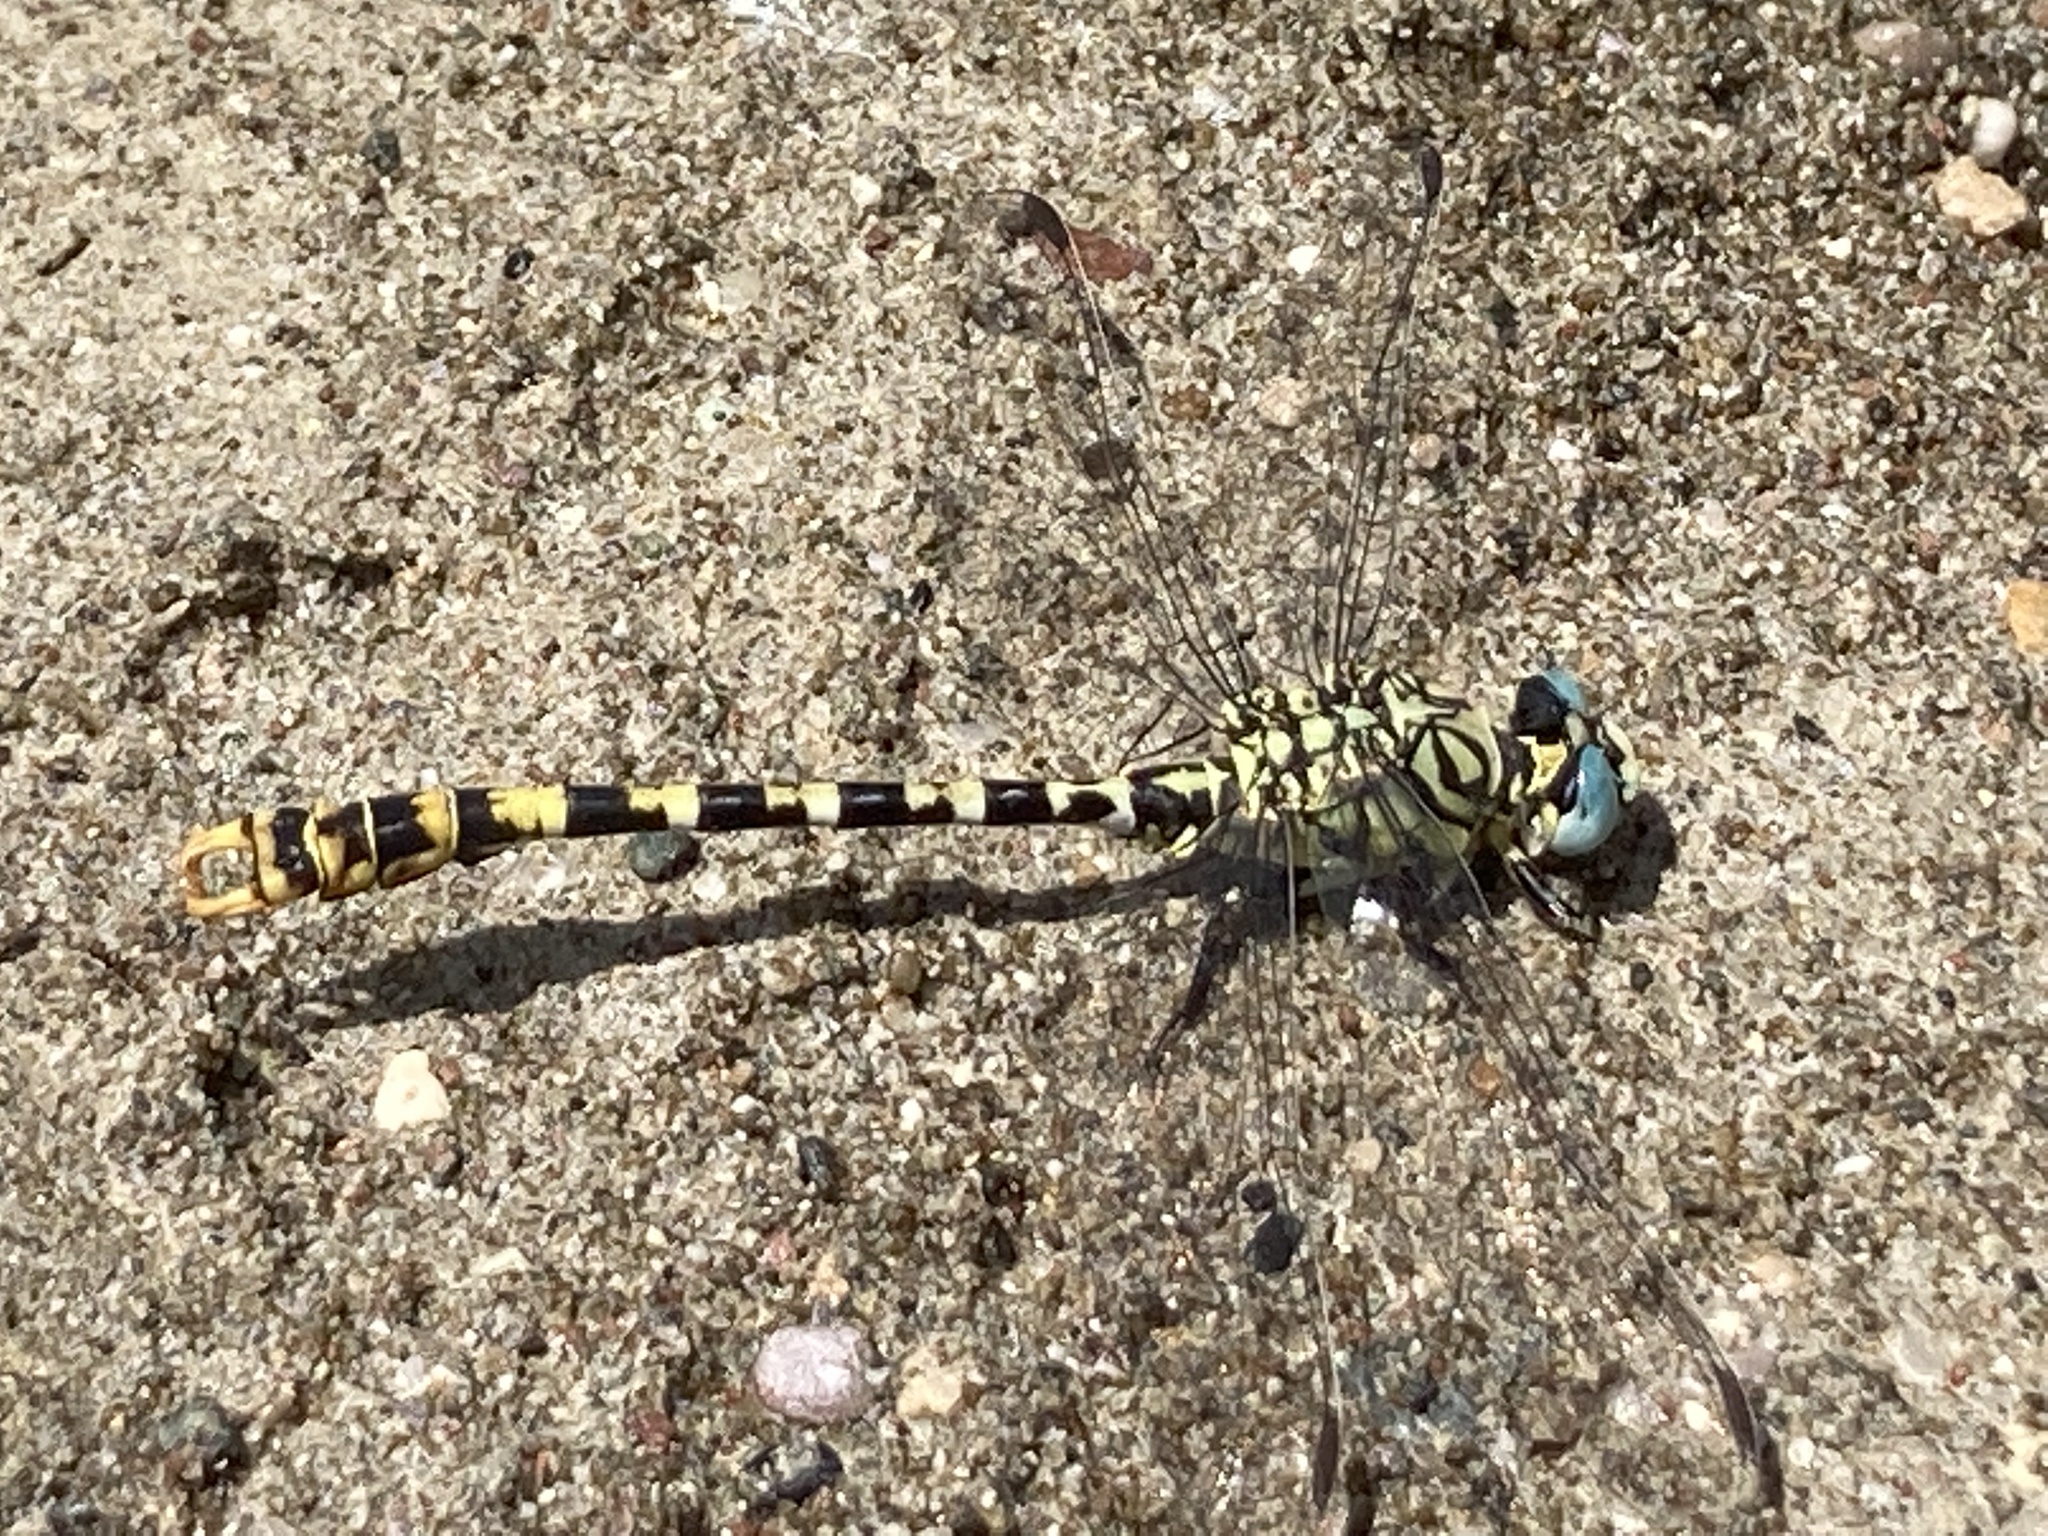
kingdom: Animalia
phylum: Arthropoda
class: Insecta
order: Odonata
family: Gomphidae
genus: Onychogomphus
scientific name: Onychogomphus forcipatus
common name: Small pincertail
